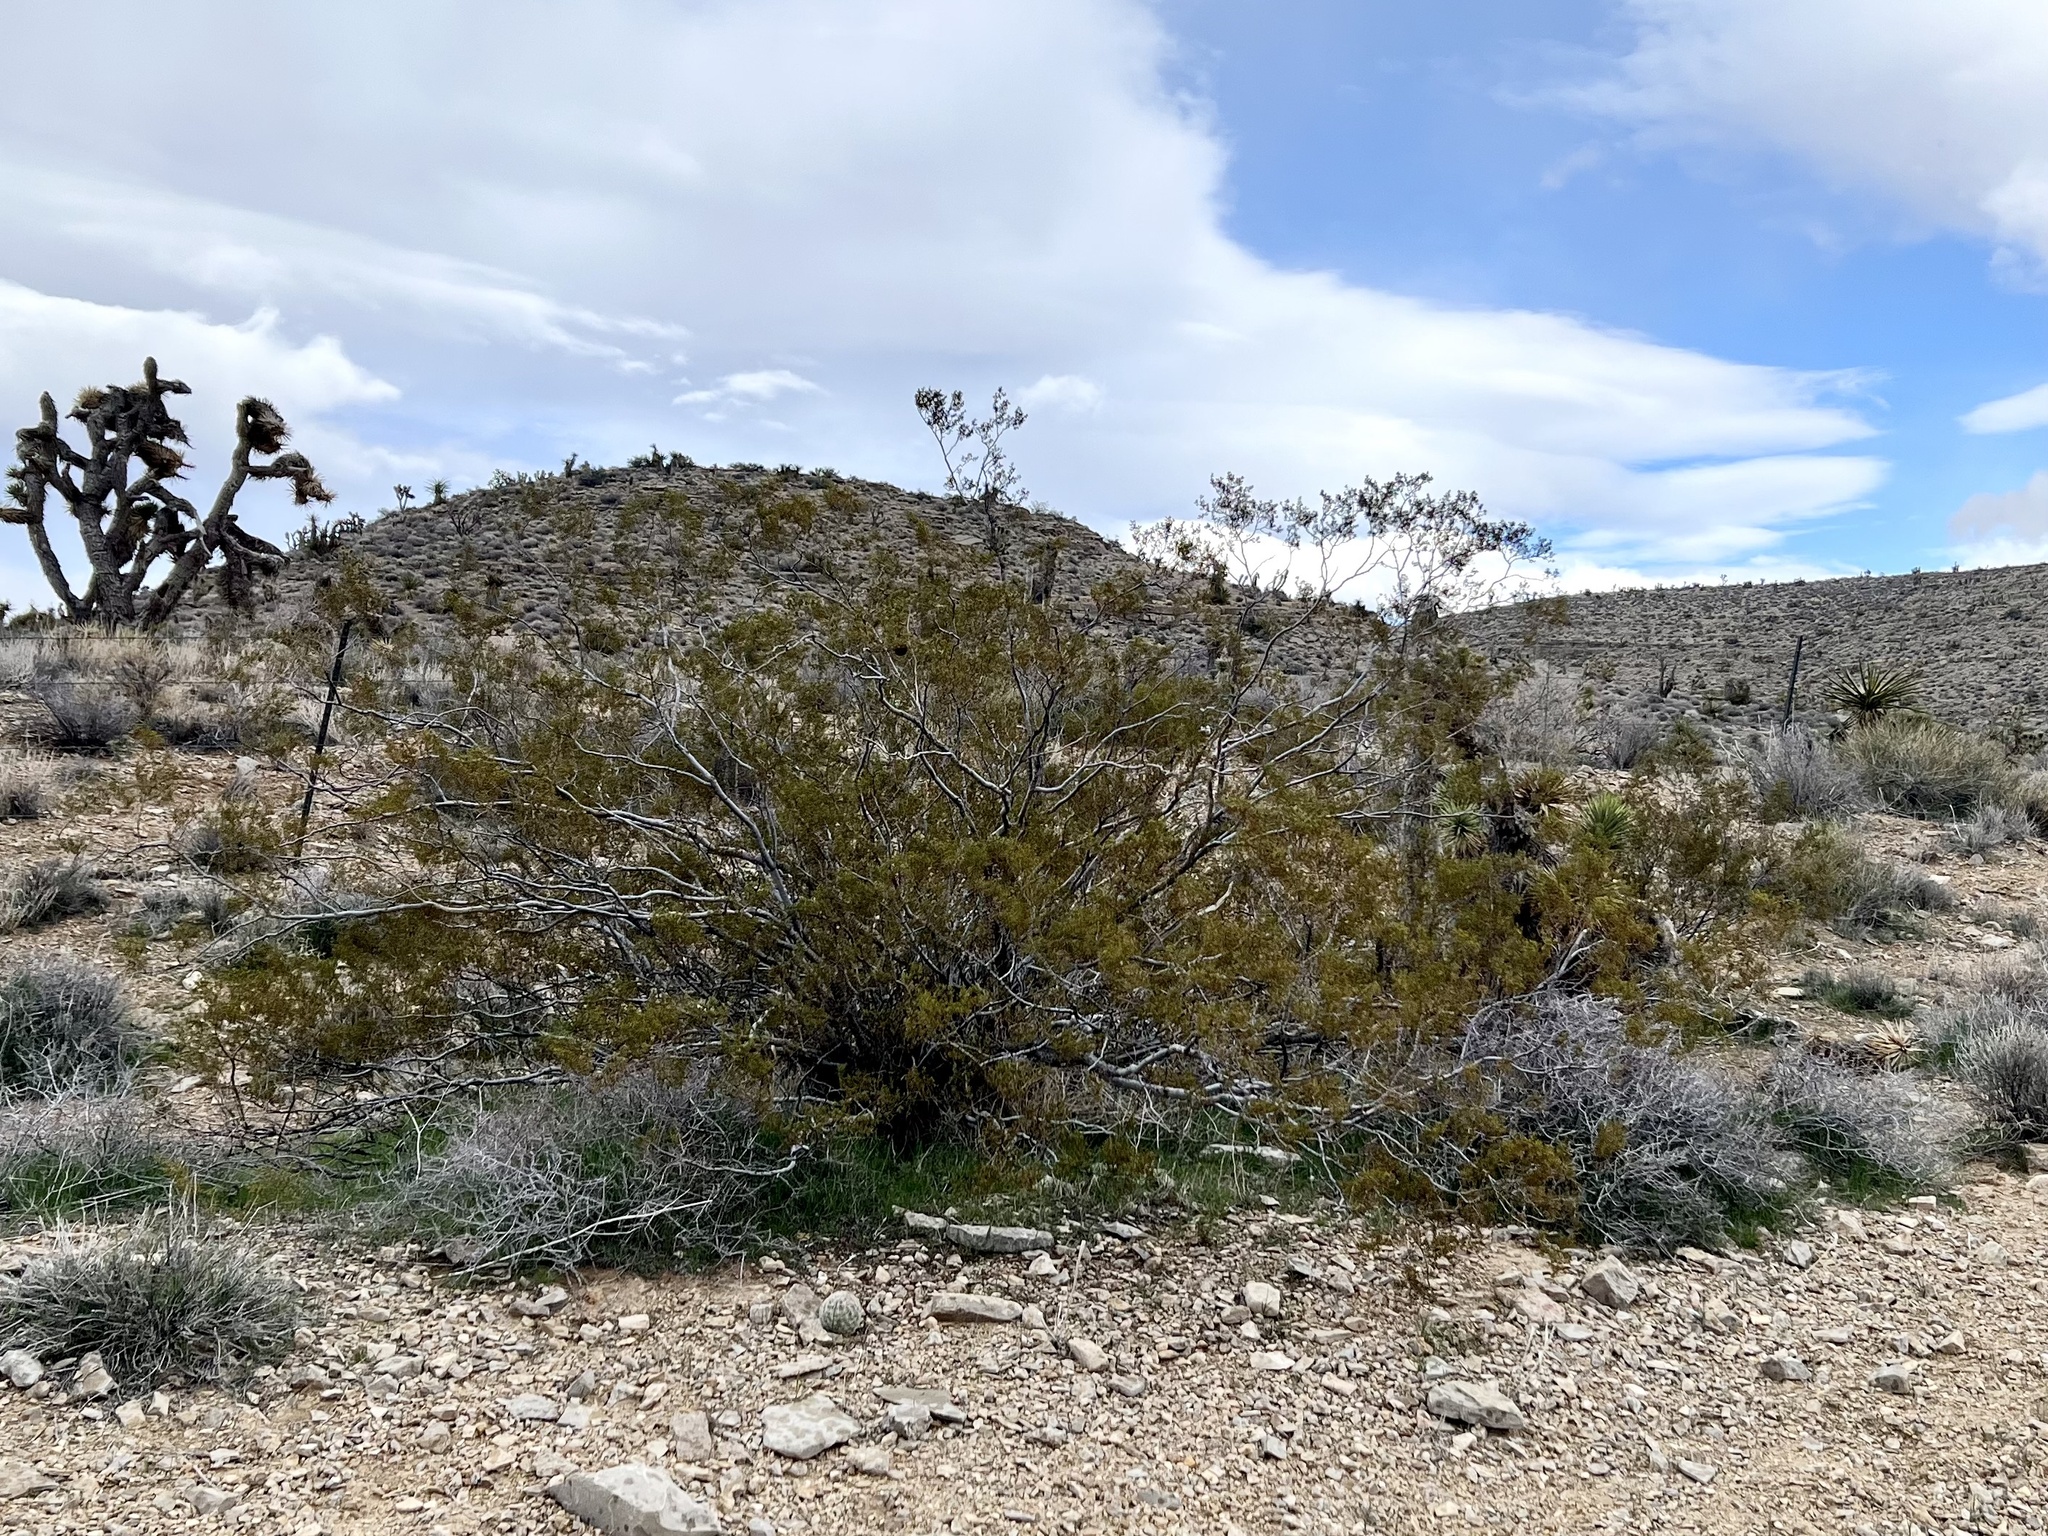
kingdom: Plantae
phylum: Tracheophyta
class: Magnoliopsida
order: Zygophyllales
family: Zygophyllaceae
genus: Larrea
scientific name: Larrea tridentata
